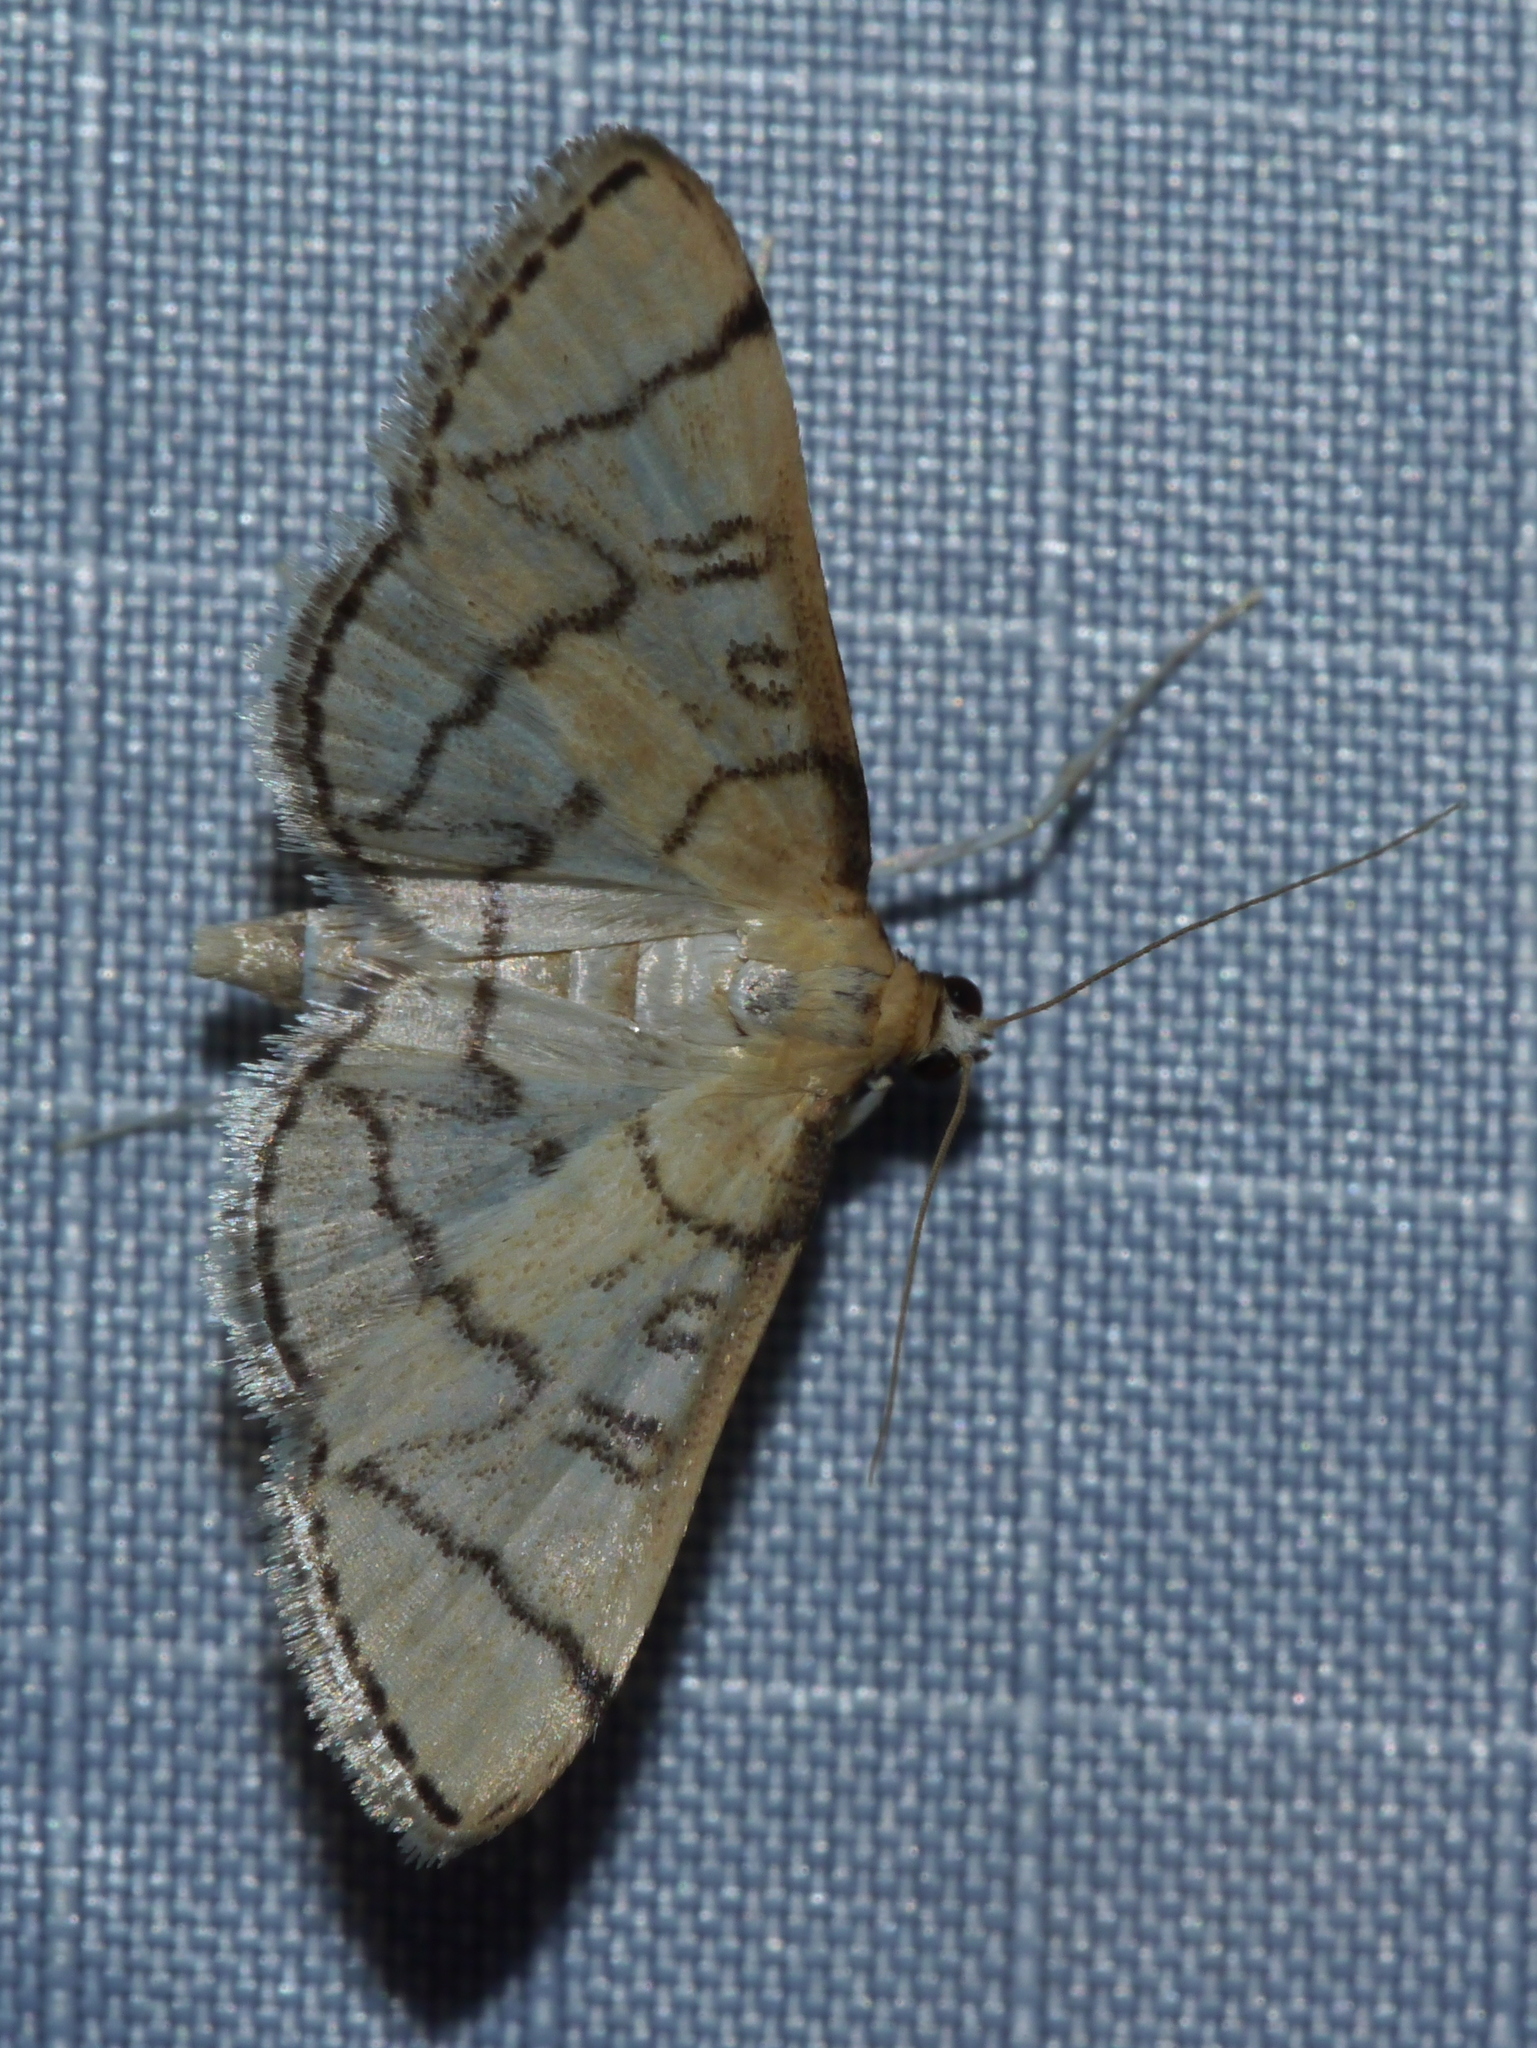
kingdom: Animalia
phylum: Arthropoda
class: Insecta
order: Lepidoptera
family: Crambidae
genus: Lamprosema
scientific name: Lamprosema Blepharomastix ranalis
